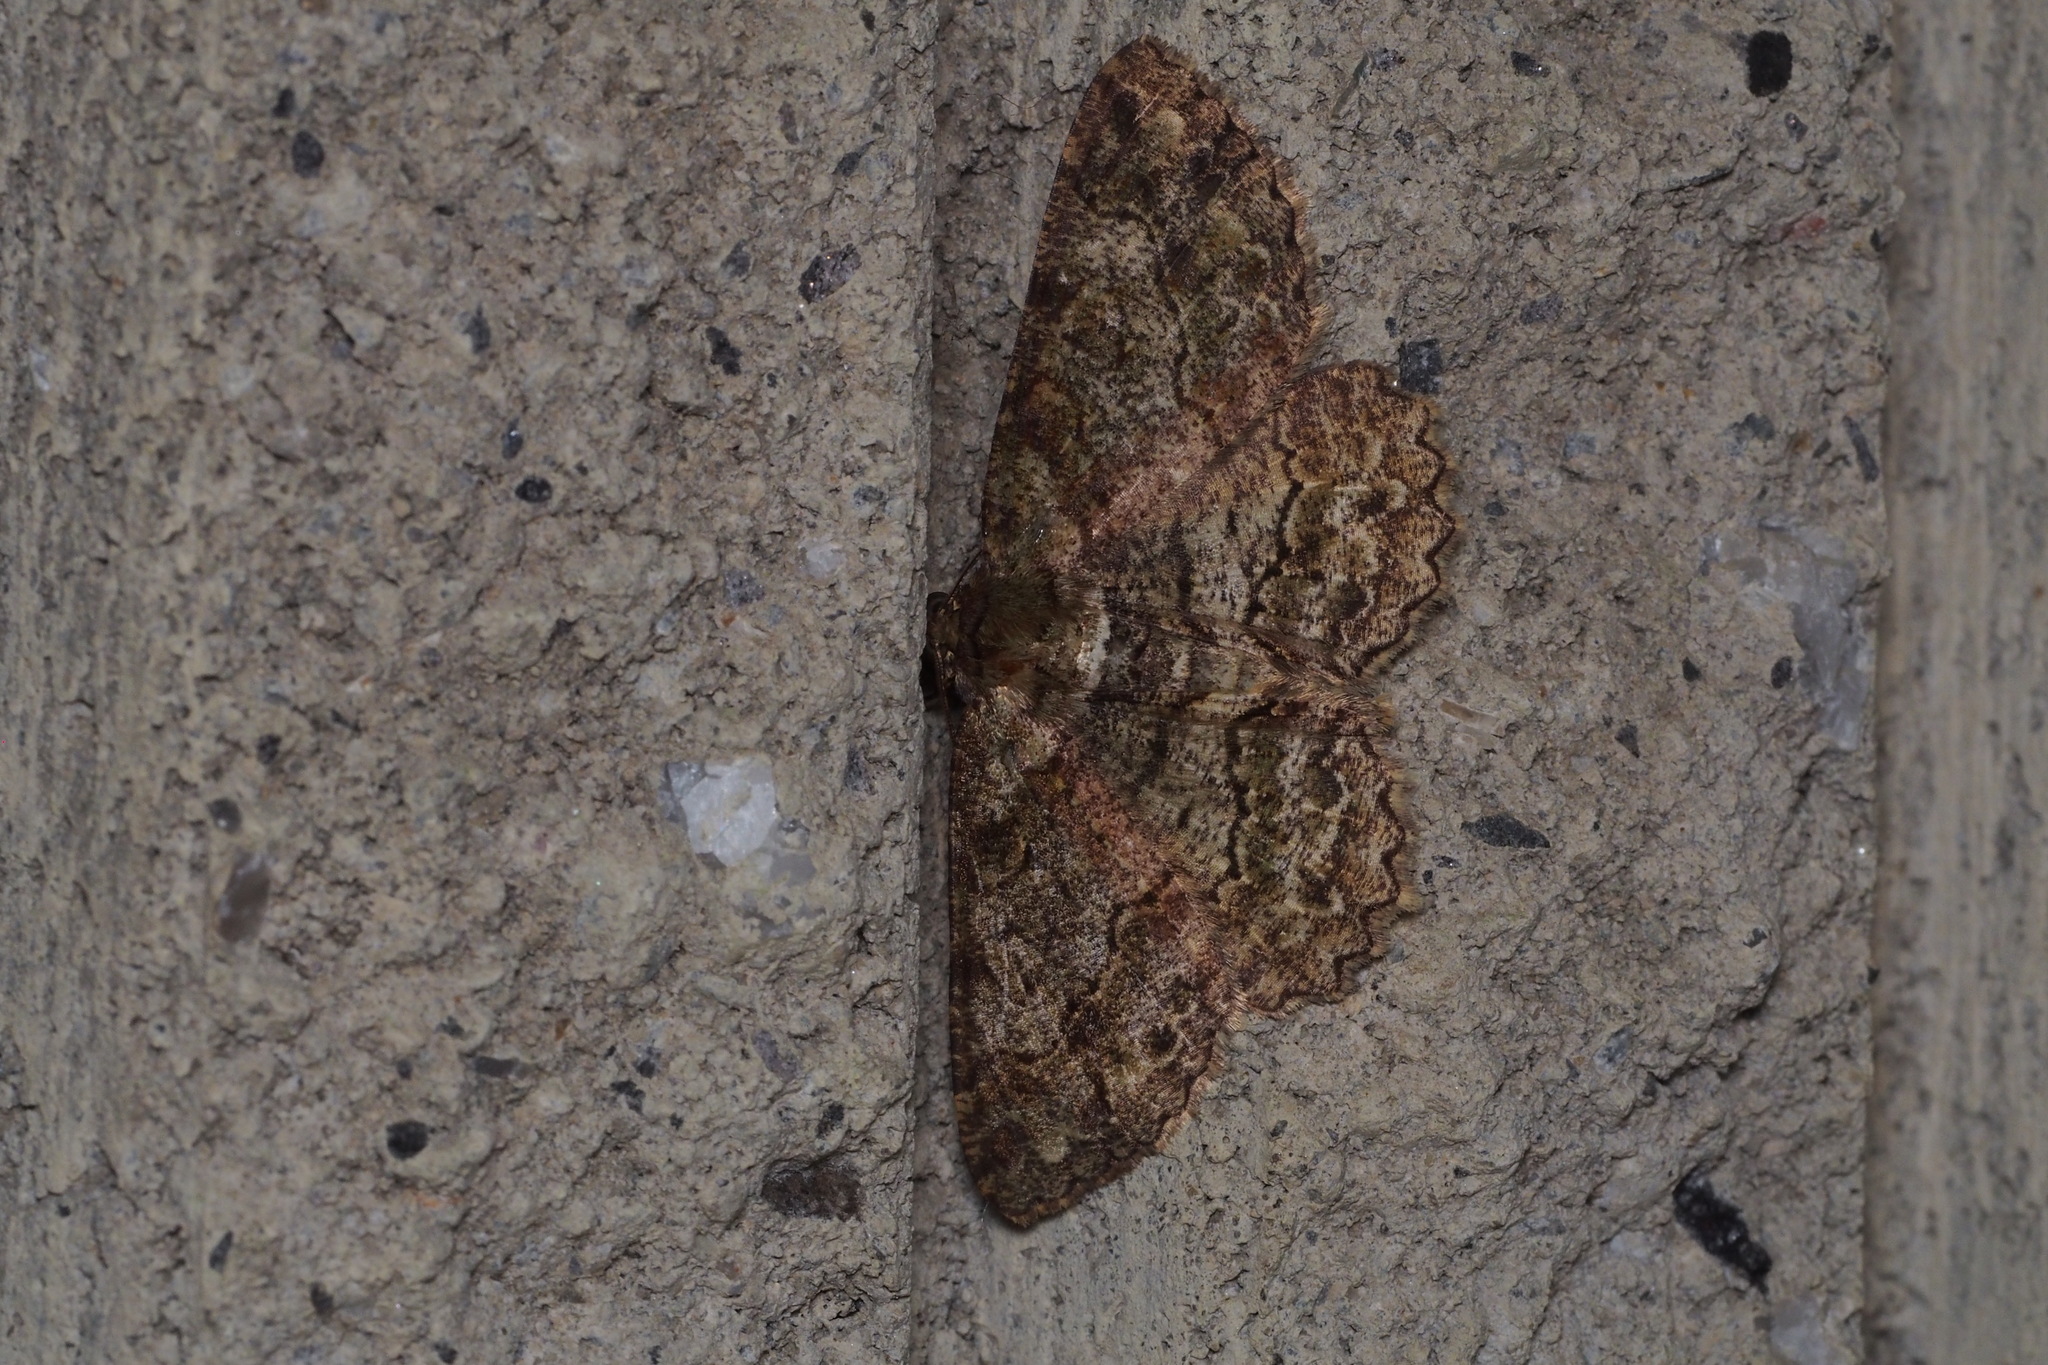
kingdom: Animalia
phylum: Arthropoda
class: Insecta
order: Lepidoptera
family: Geometridae
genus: Paradarisa
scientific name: Paradarisa chloauges
